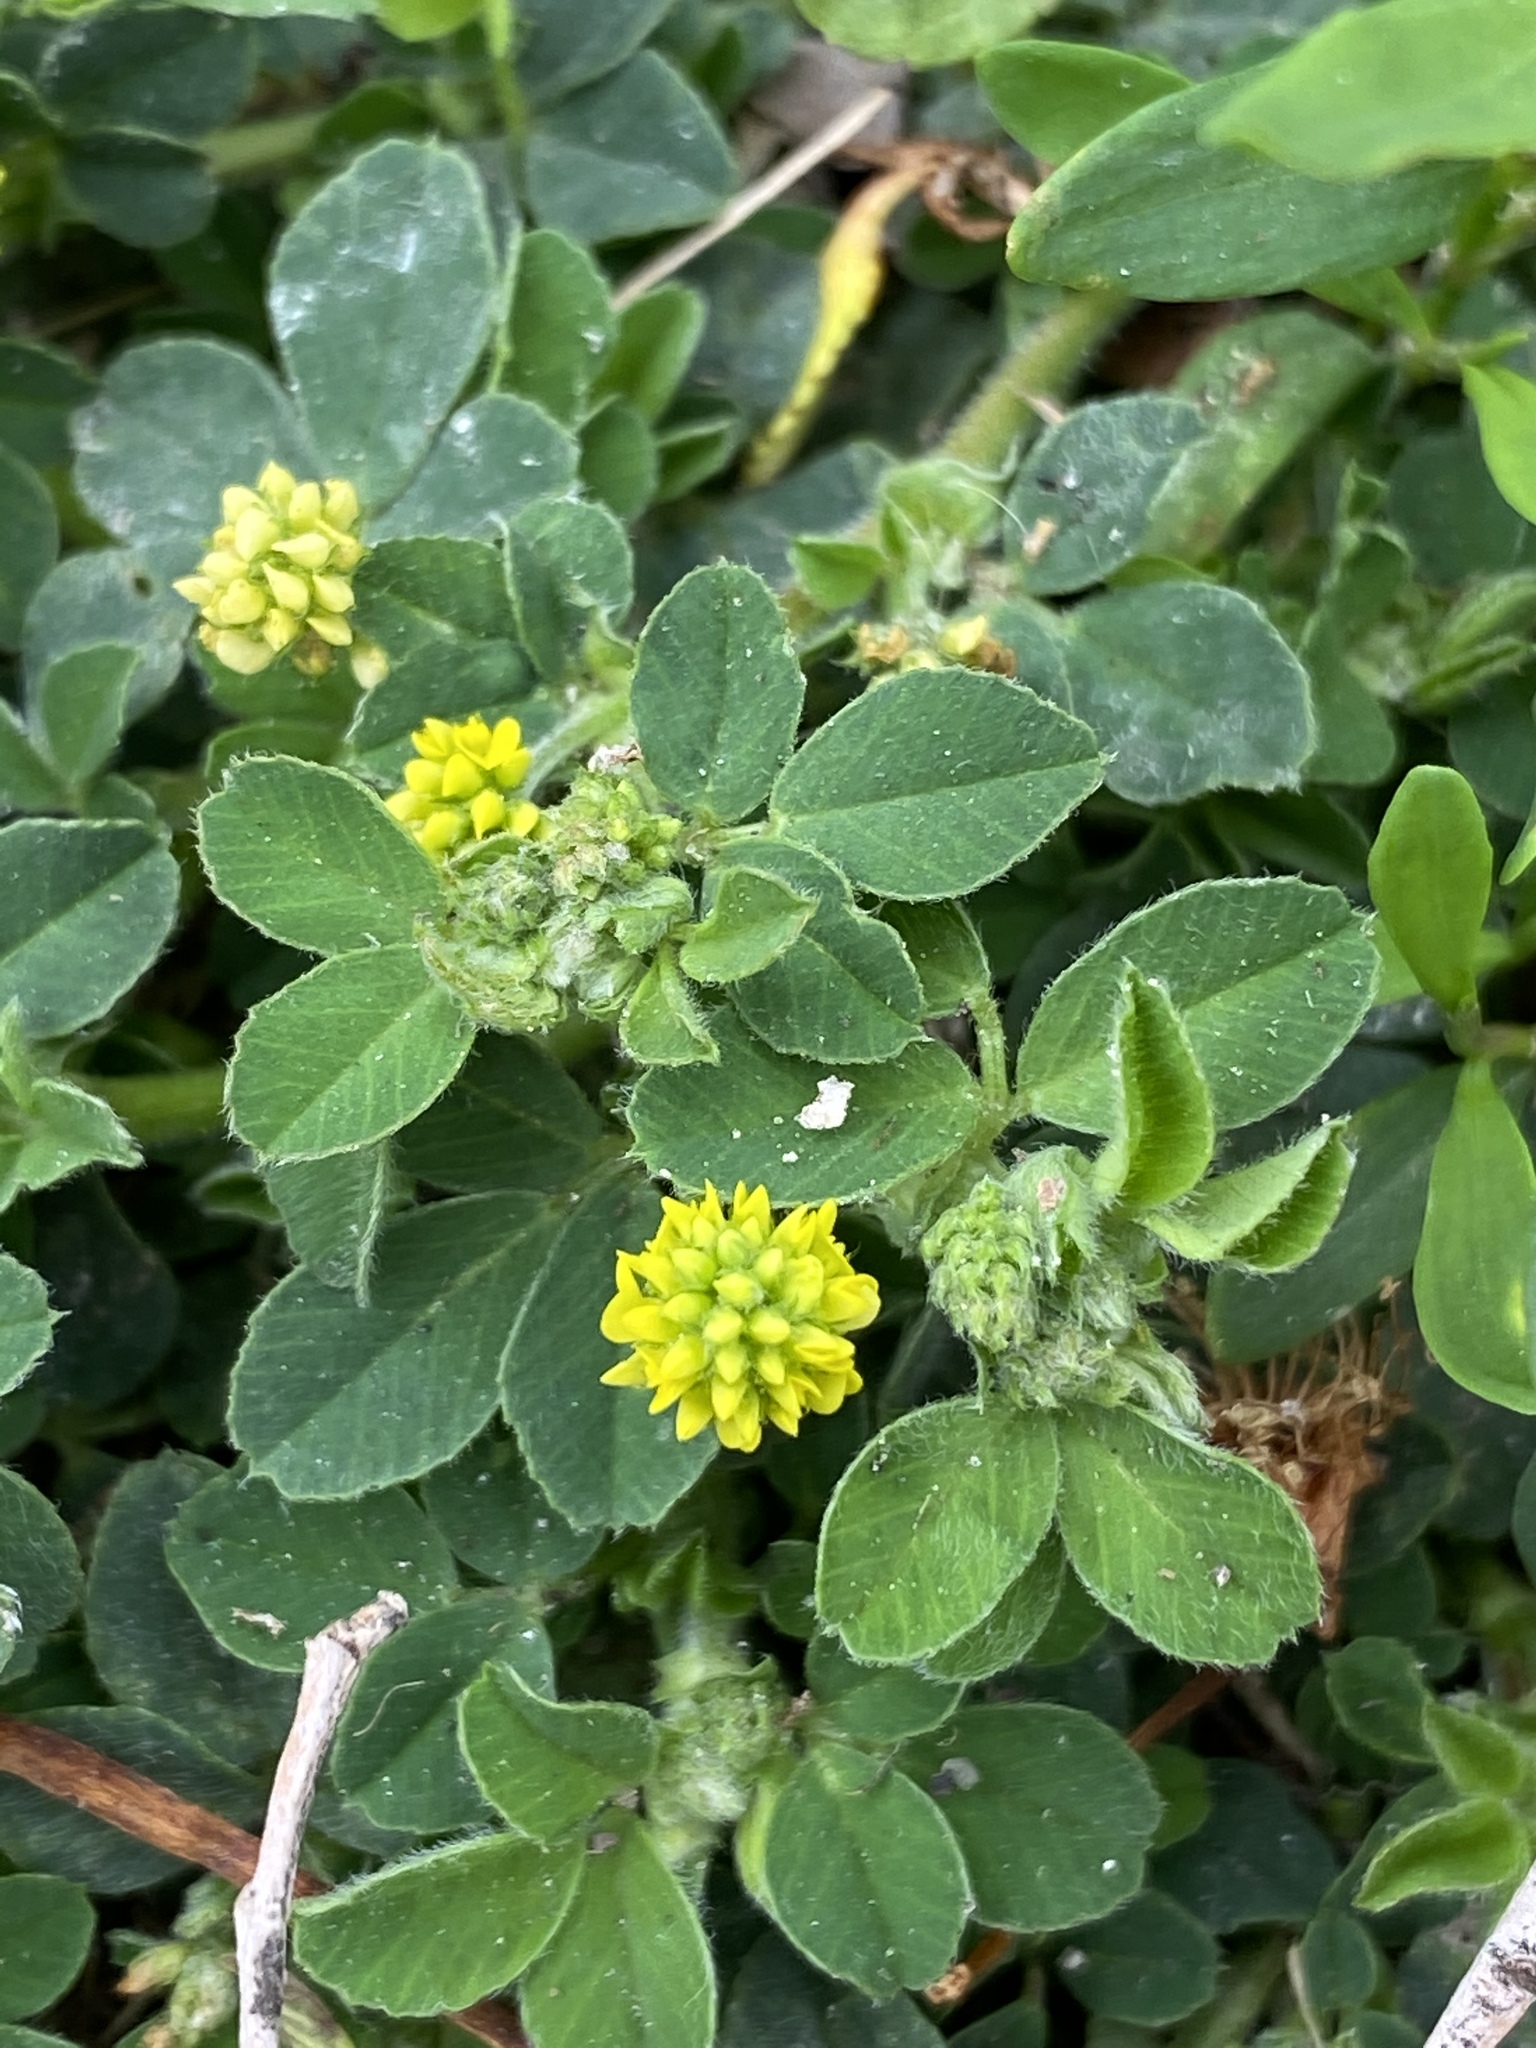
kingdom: Plantae
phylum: Tracheophyta
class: Magnoliopsida
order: Fabales
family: Fabaceae
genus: Medicago
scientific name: Medicago lupulina
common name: Black medick
